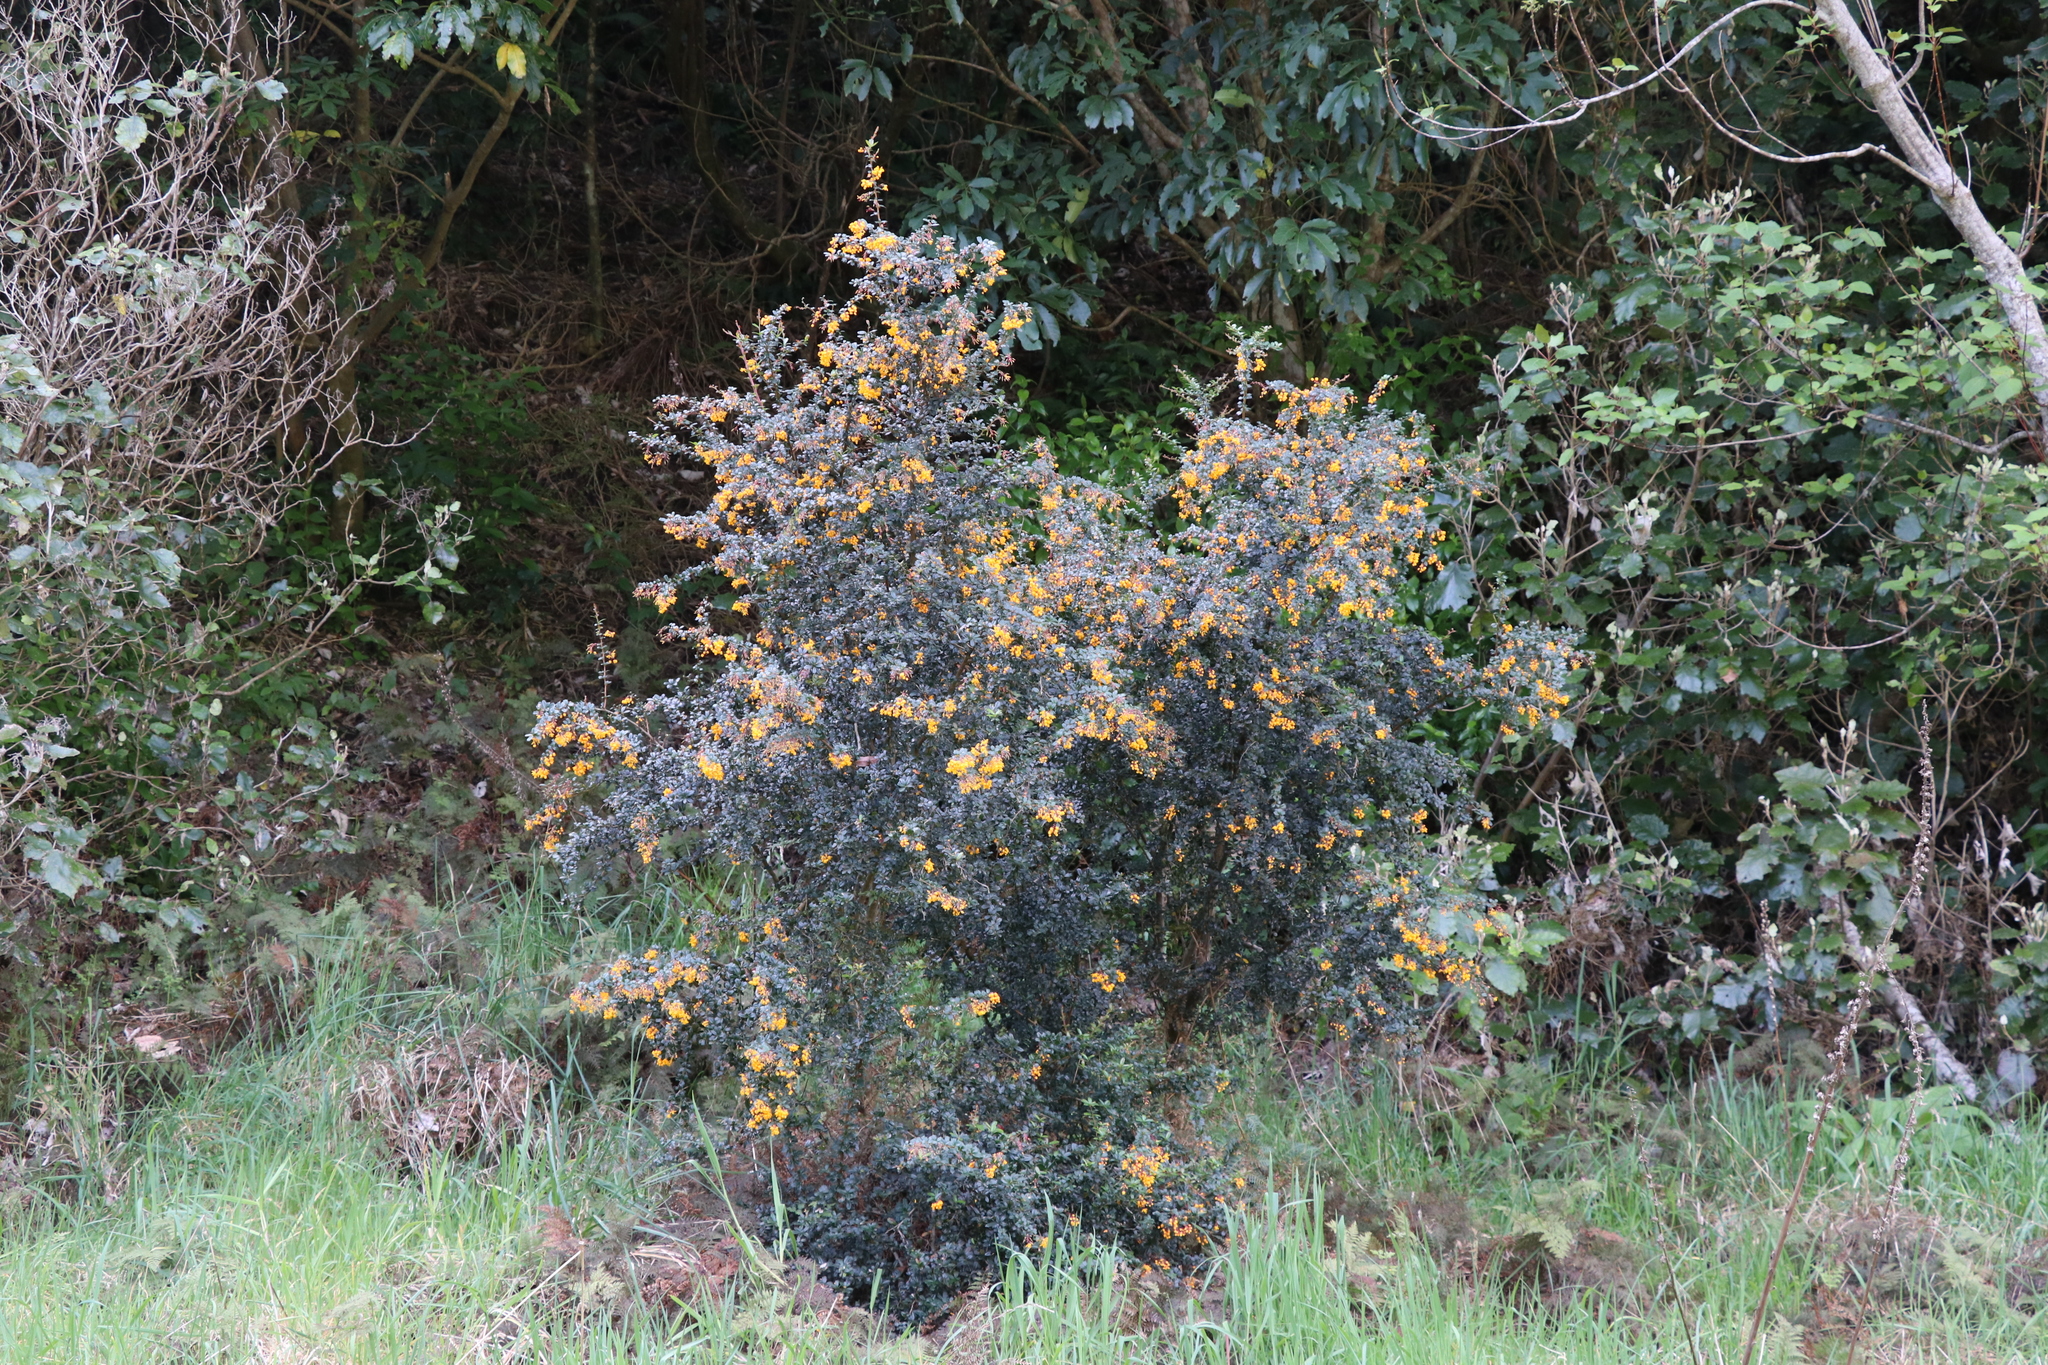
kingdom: Plantae
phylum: Tracheophyta
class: Magnoliopsida
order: Ranunculales
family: Berberidaceae
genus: Berberis
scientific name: Berberis darwinii
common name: Darwin's barberry
